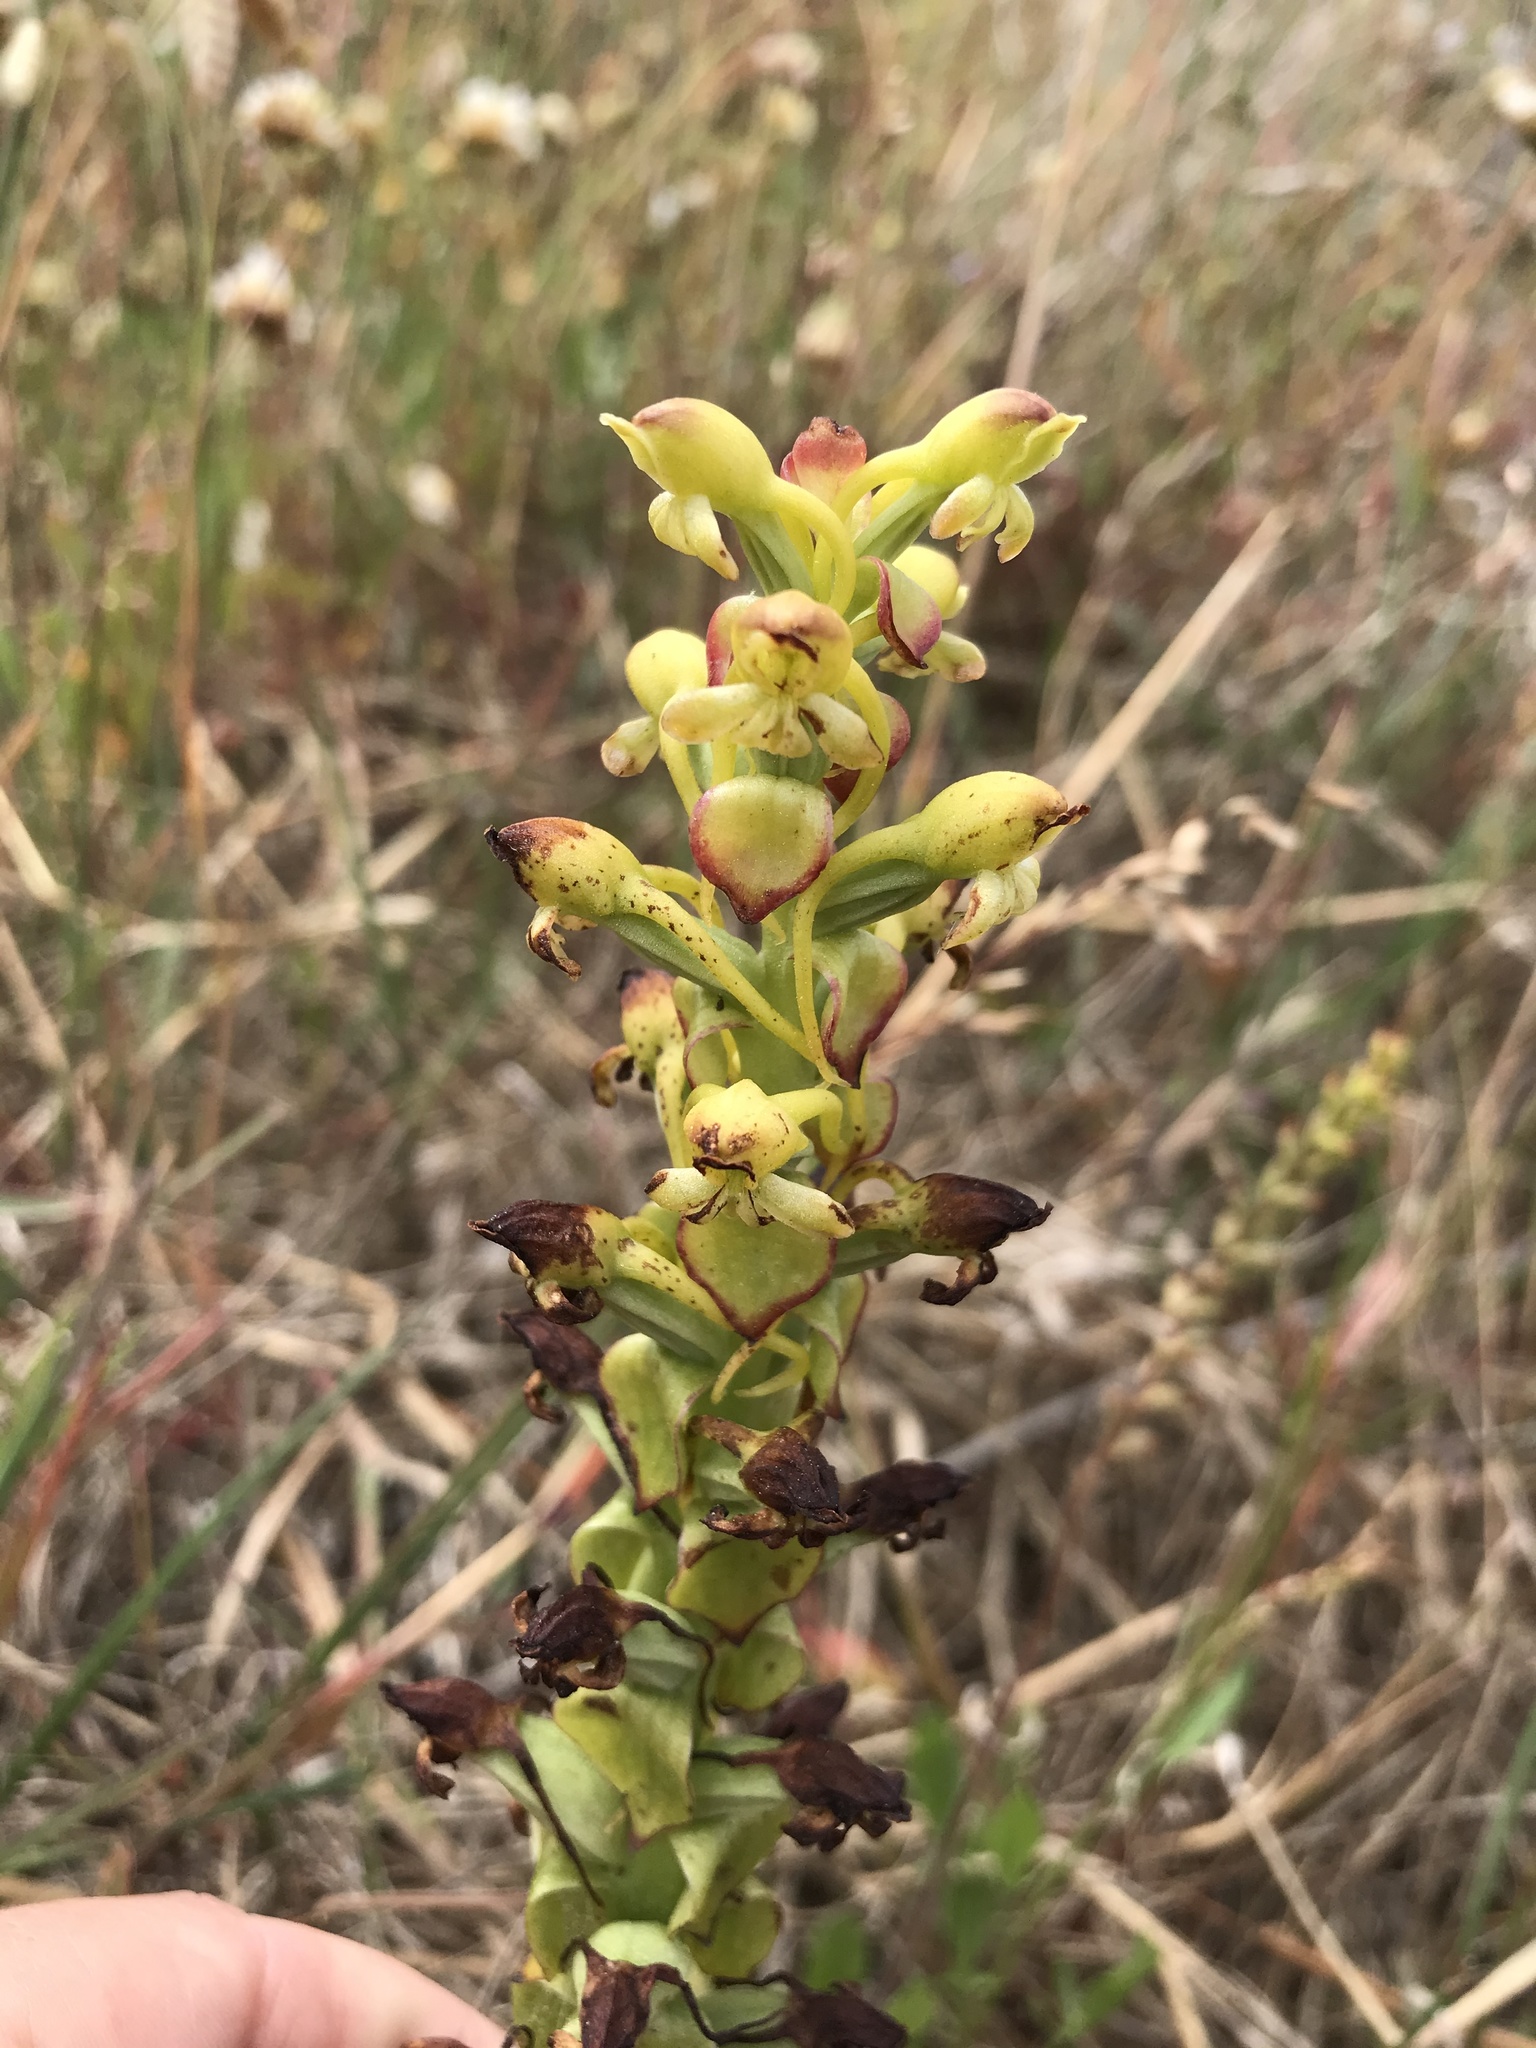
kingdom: Plantae
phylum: Tracheophyta
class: Liliopsida
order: Asparagales
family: Orchidaceae
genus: Satyrium
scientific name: Satyrium odorum
